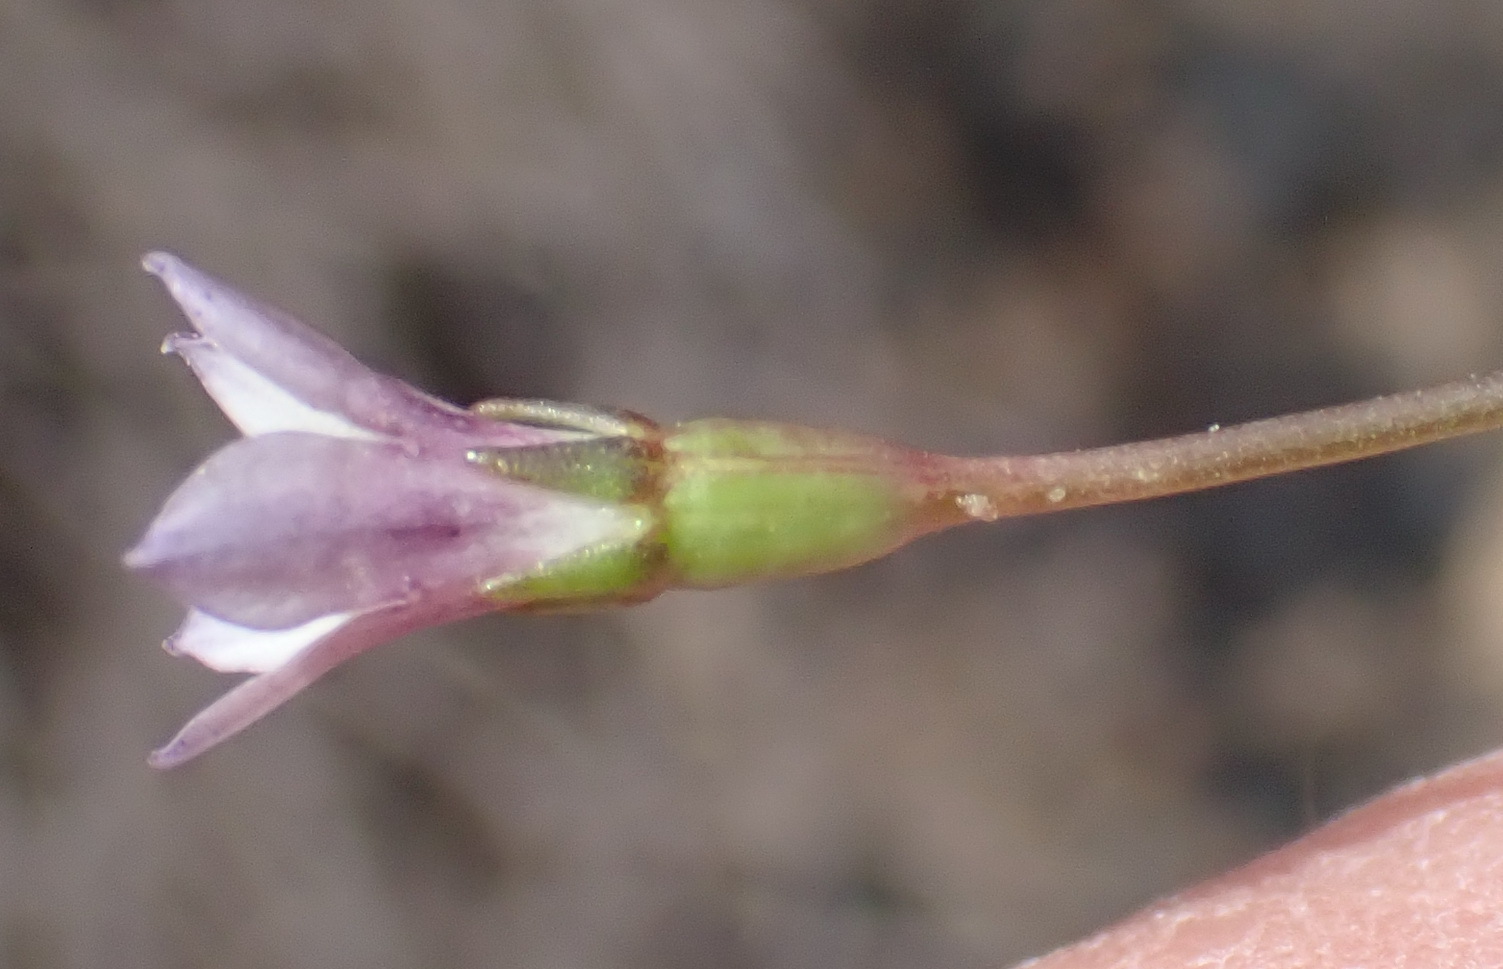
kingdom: Plantae
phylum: Tracheophyta
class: Magnoliopsida
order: Asterales
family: Campanulaceae
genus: Wahlenbergia
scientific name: Wahlenbergia cernua
